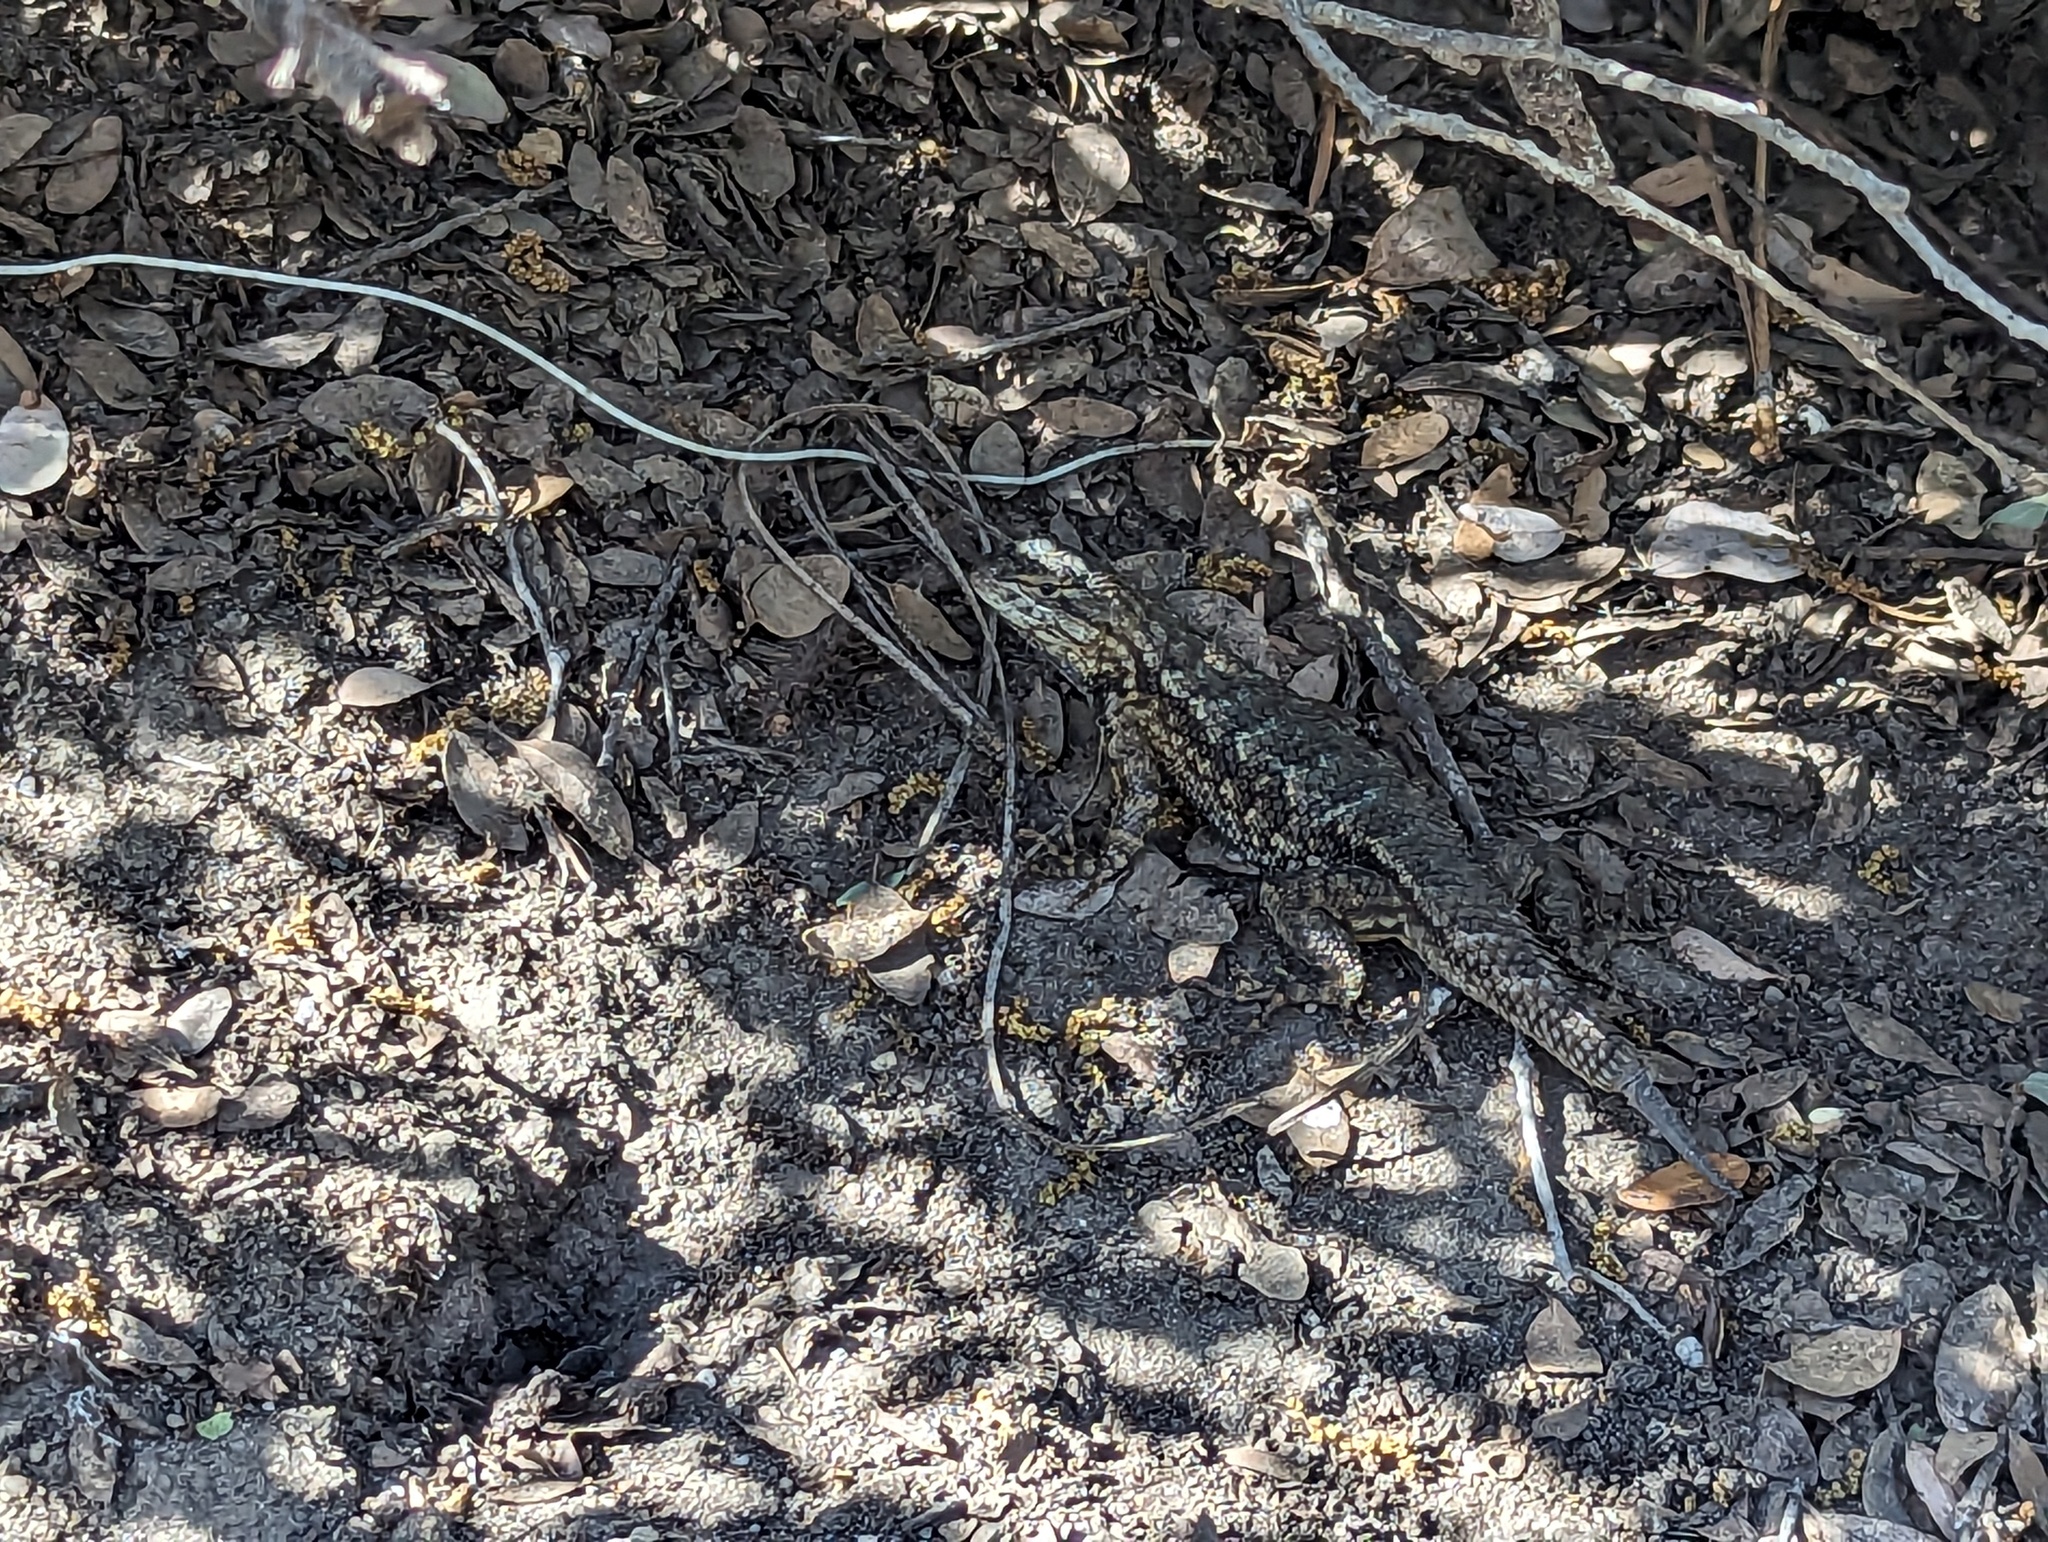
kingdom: Animalia
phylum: Chordata
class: Squamata
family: Phrynosomatidae
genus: Sceloporus
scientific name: Sceloporus occidentalis
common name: Western fence lizard
